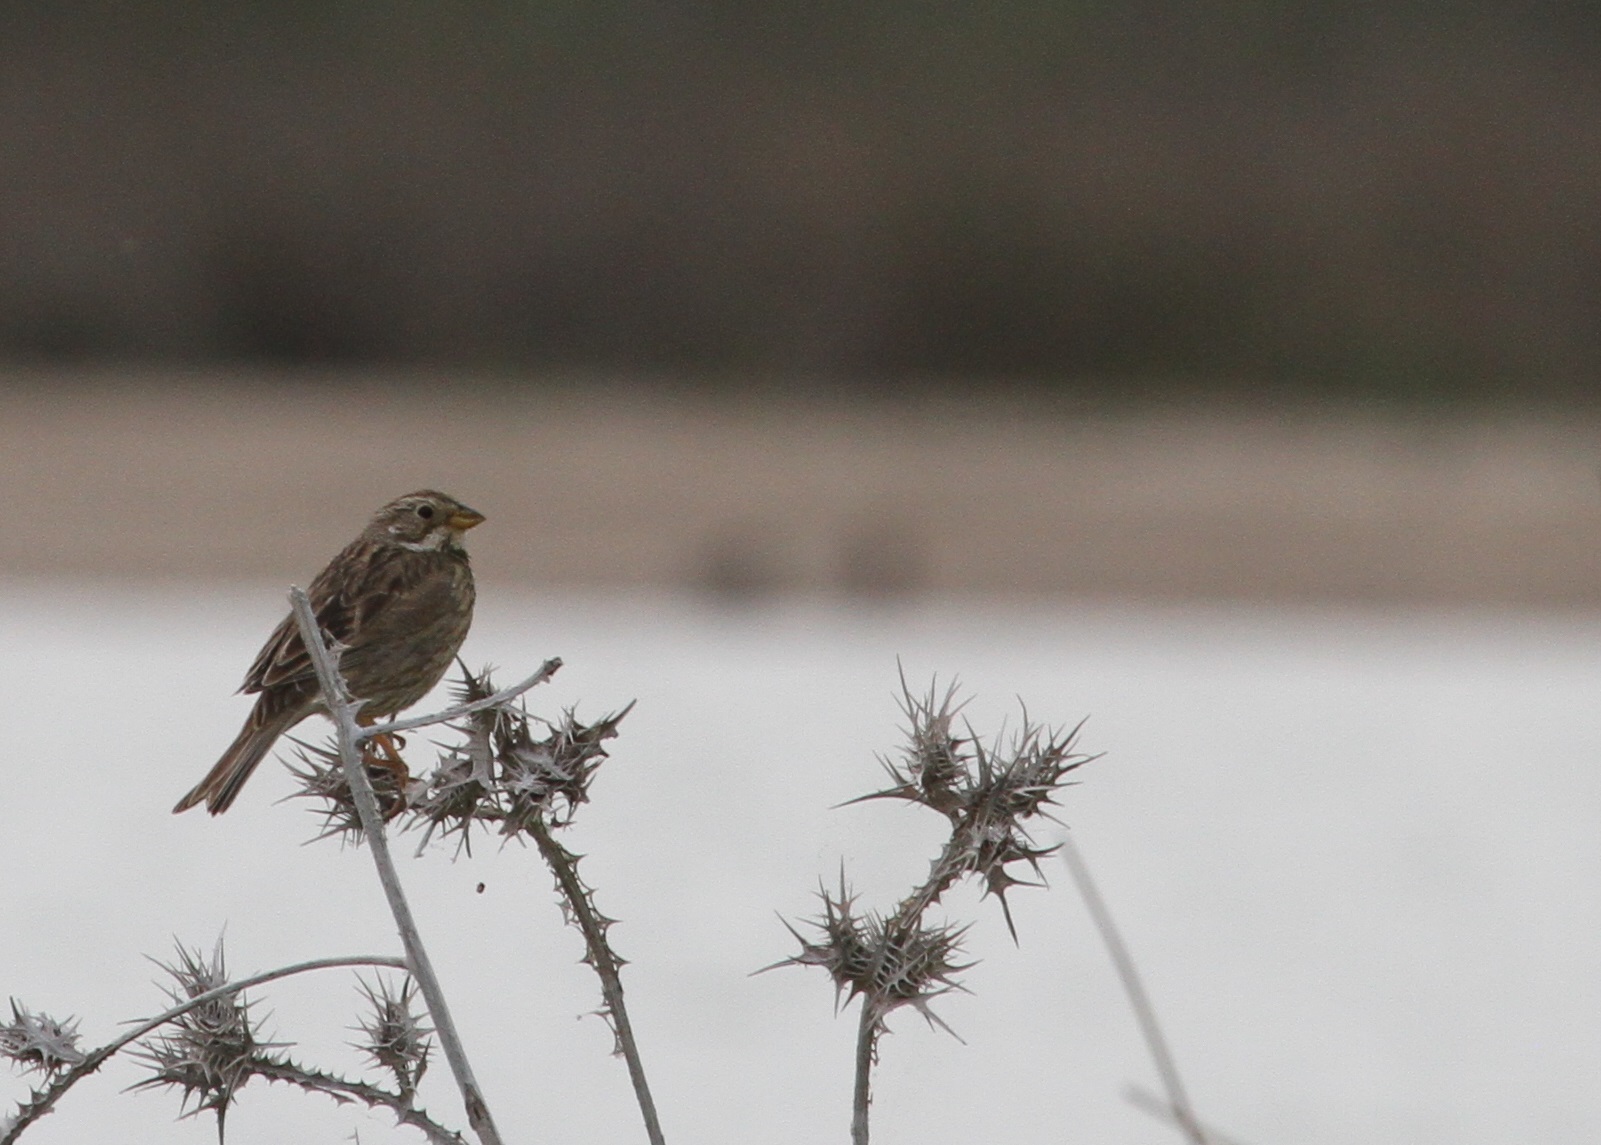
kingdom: Animalia
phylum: Chordata
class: Aves
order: Passeriformes
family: Emberizidae
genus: Emberiza
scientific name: Emberiza calandra
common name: Corn bunting
